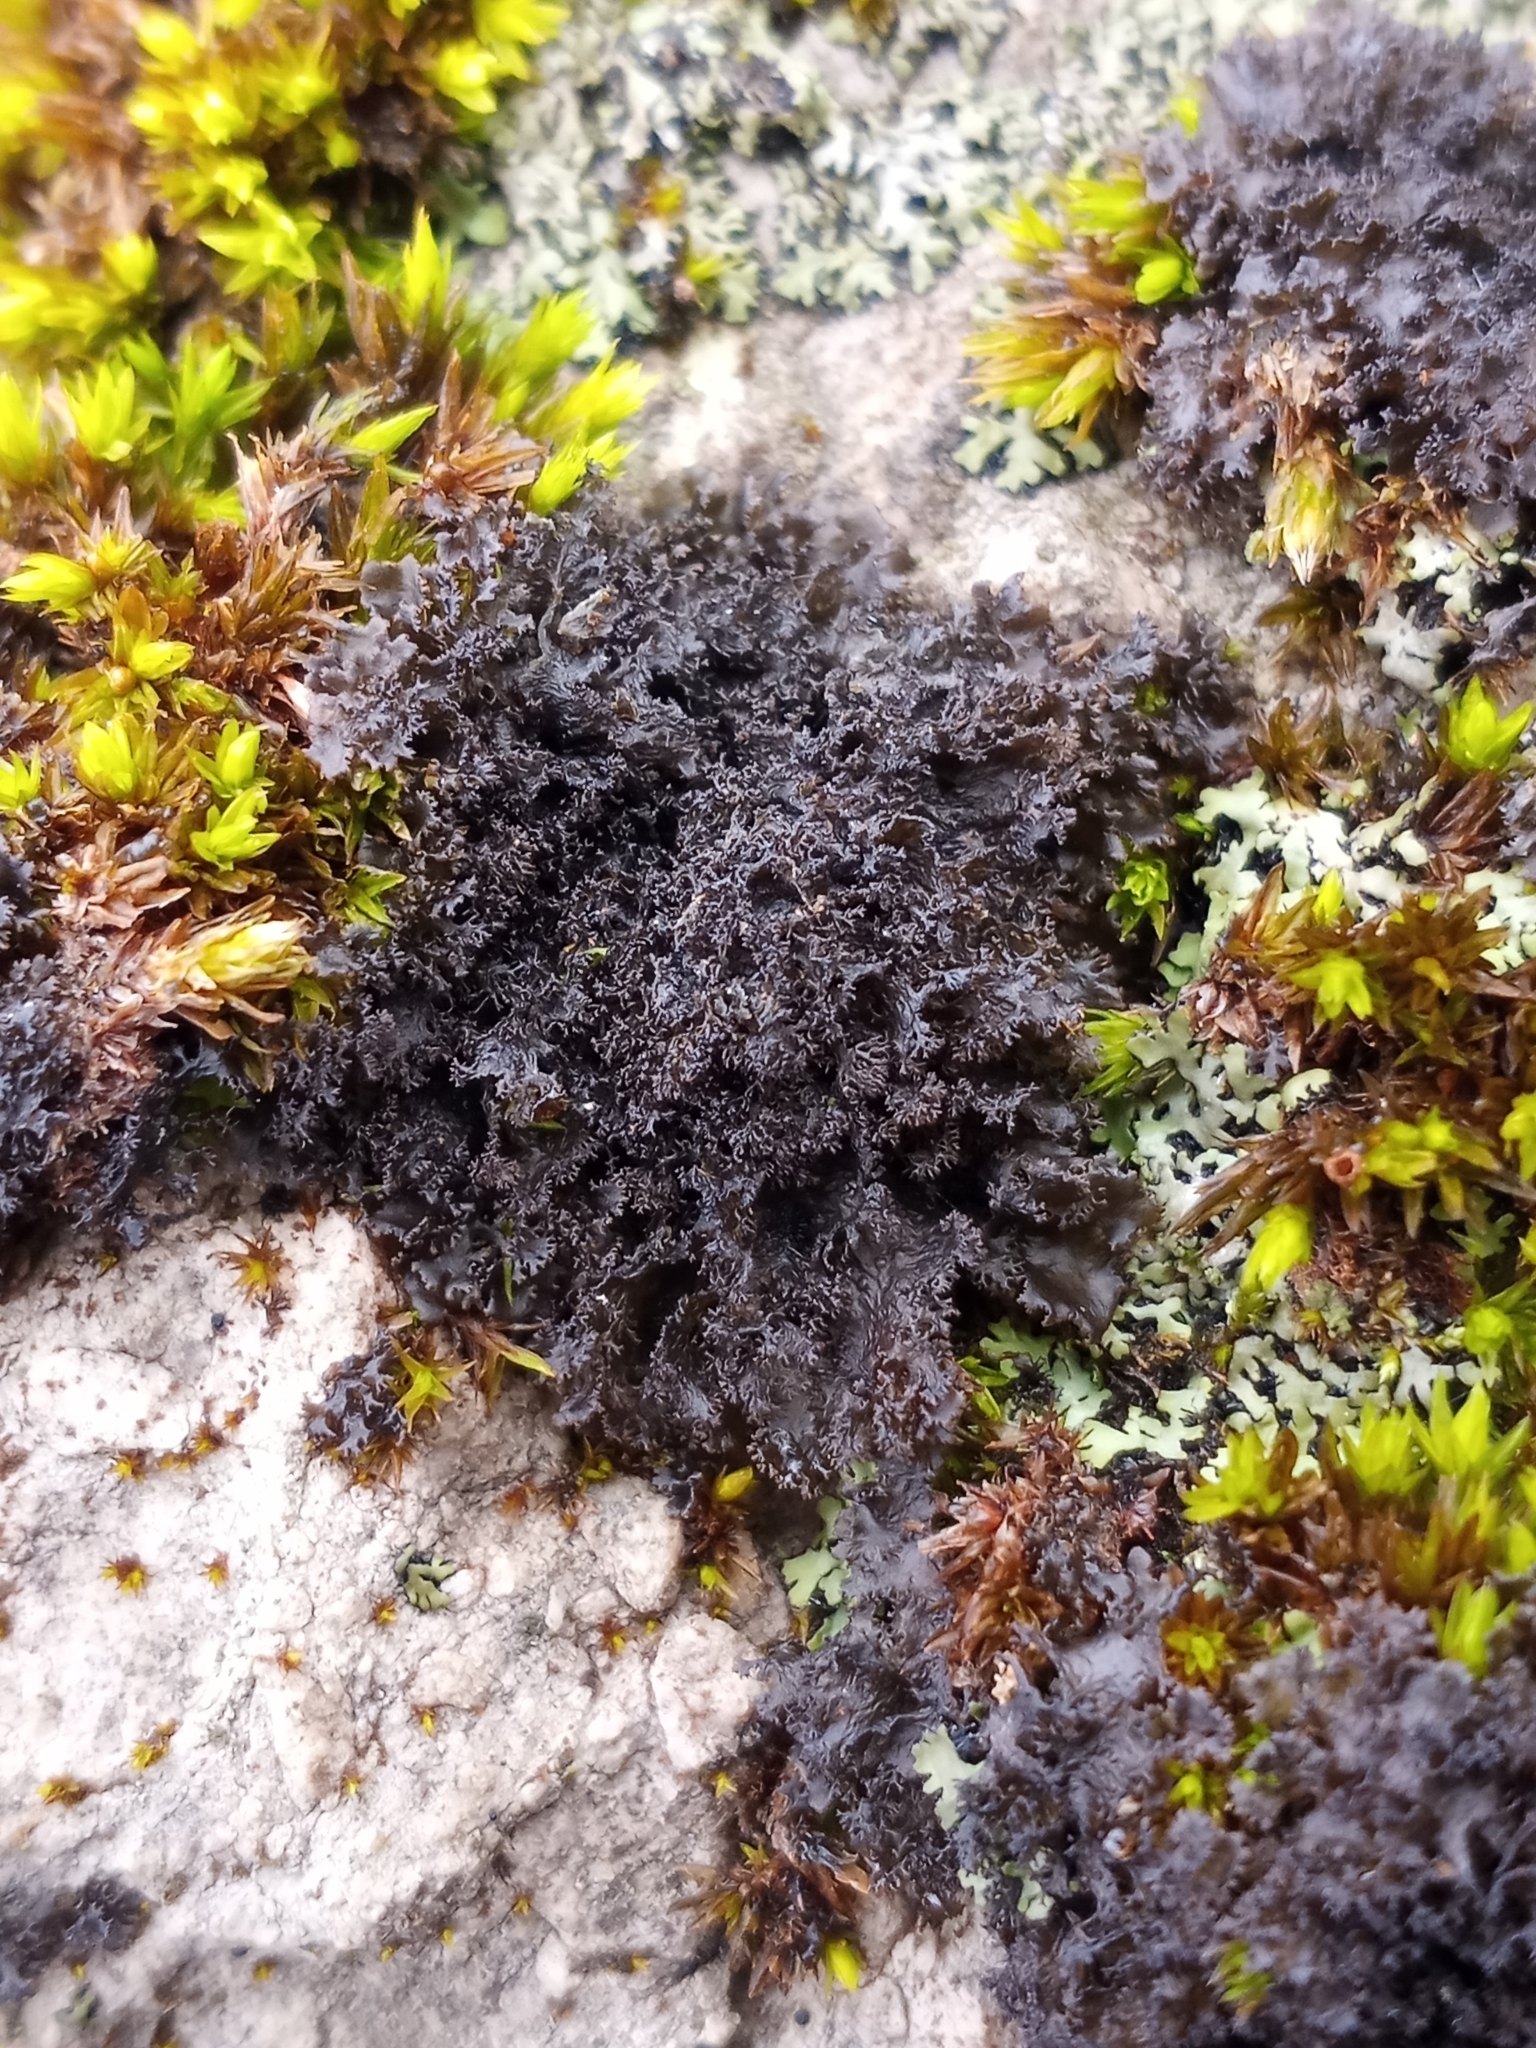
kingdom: Fungi
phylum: Ascomycota
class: Lecanoromycetes
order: Peltigerales
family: Collemataceae
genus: Scytinium
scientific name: Scytinium lichenoides
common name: Tattered jellyskin lichen
